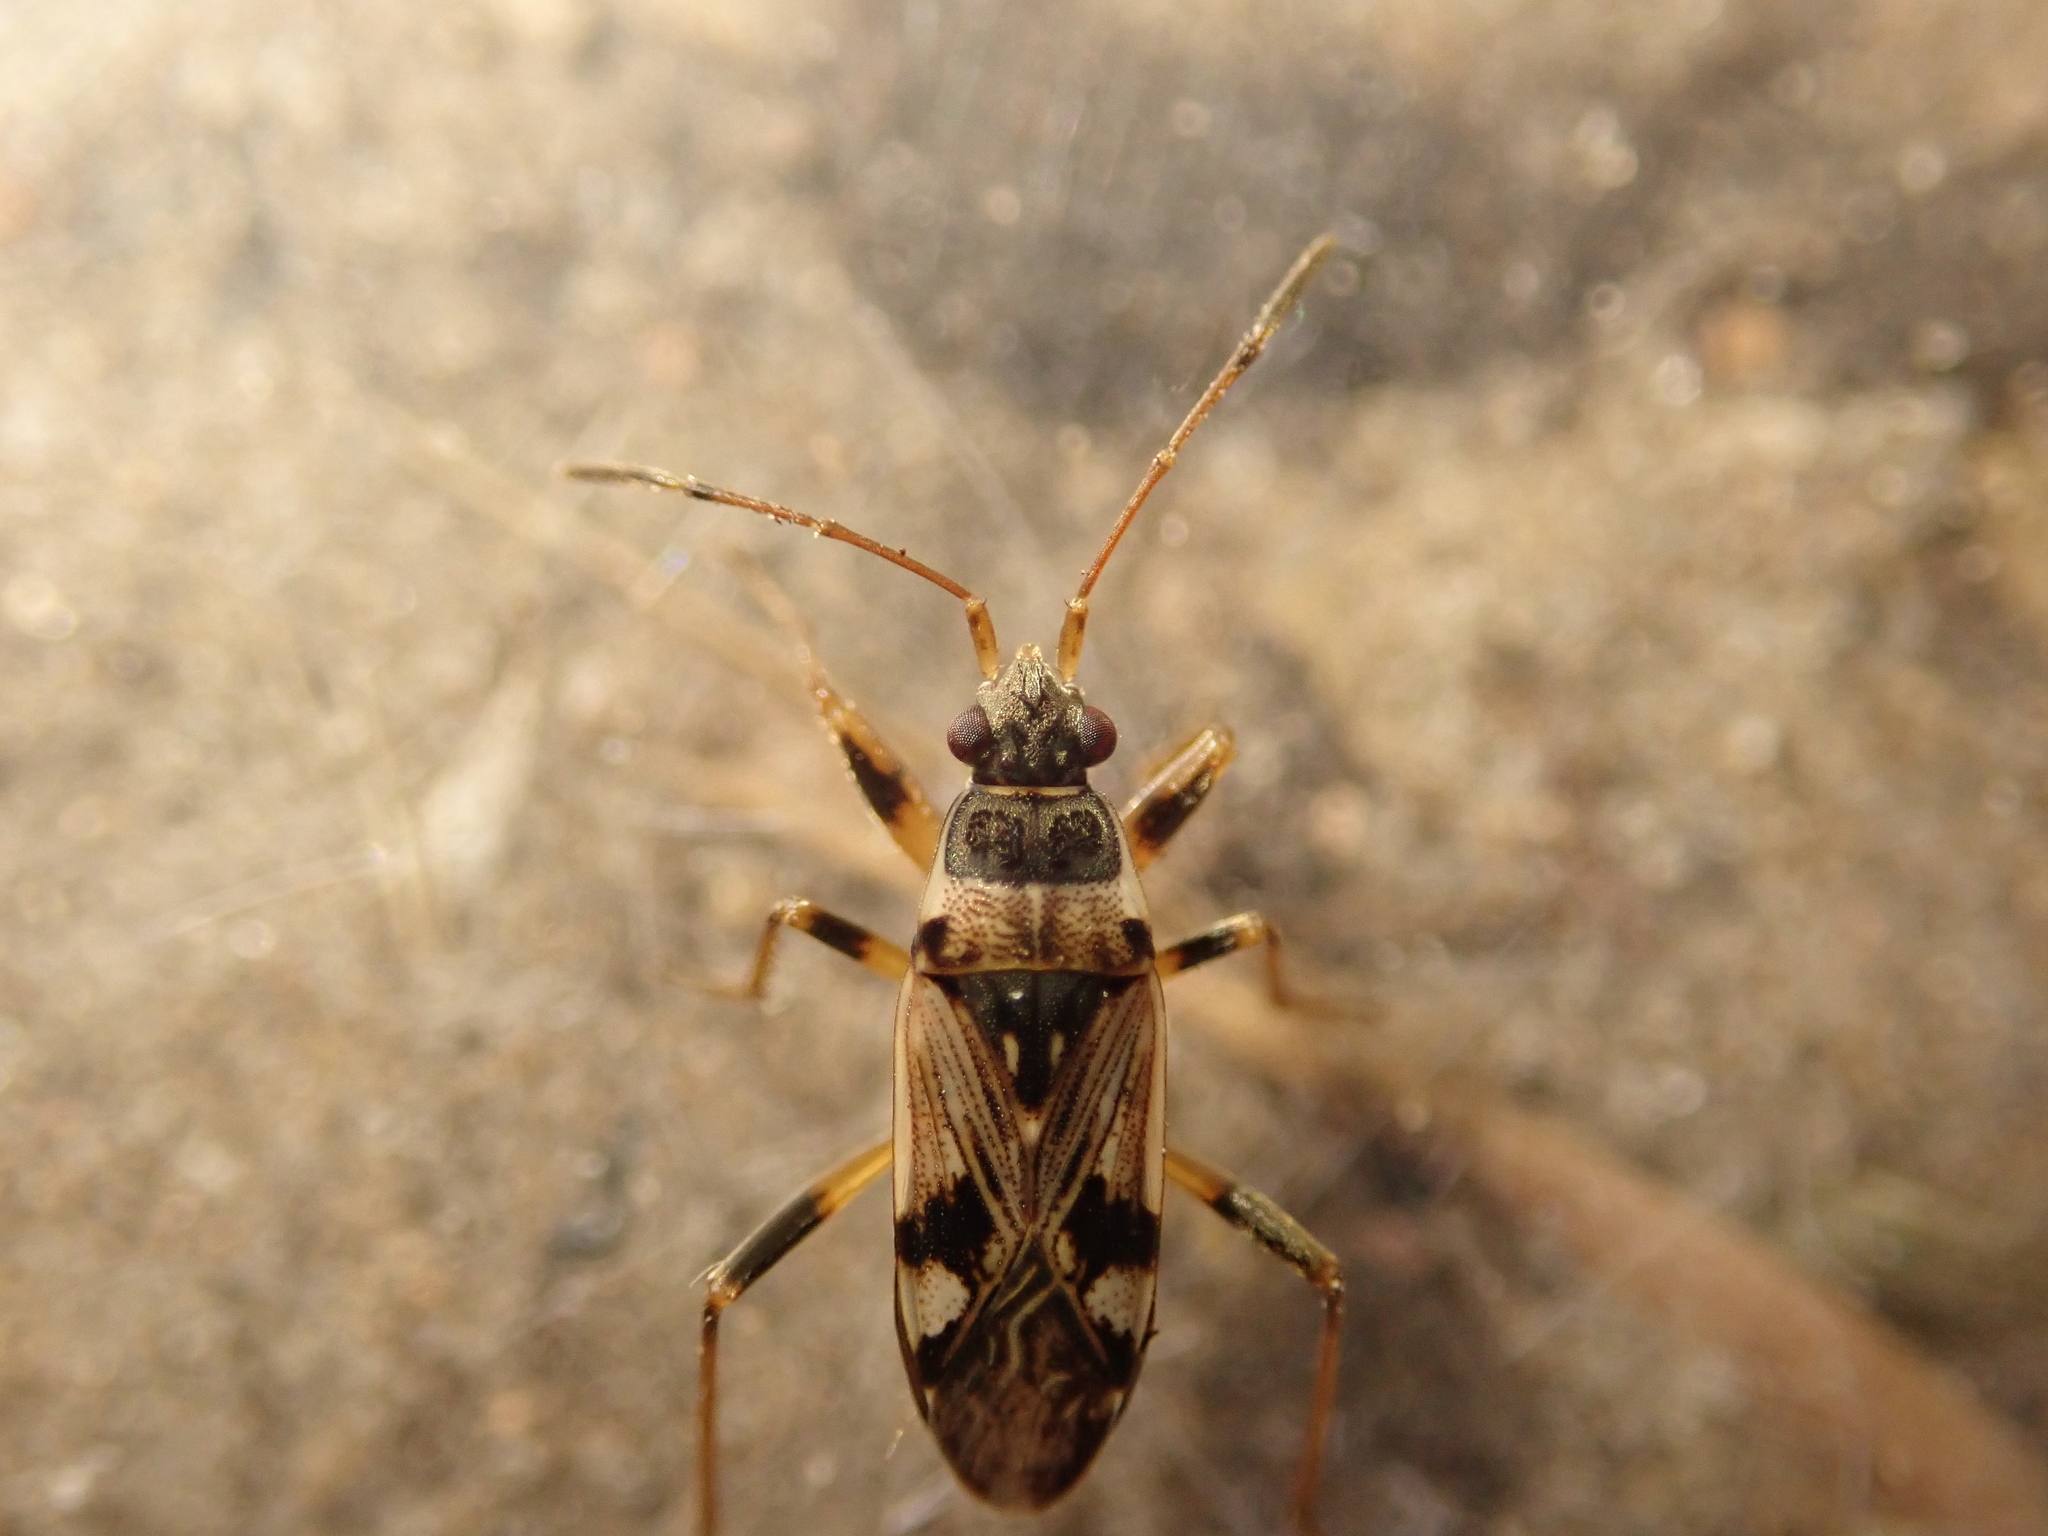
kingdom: Animalia
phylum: Arthropoda
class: Insecta
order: Hemiptera
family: Rhyparochromidae
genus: Beosus
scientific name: Beosus maritimus
